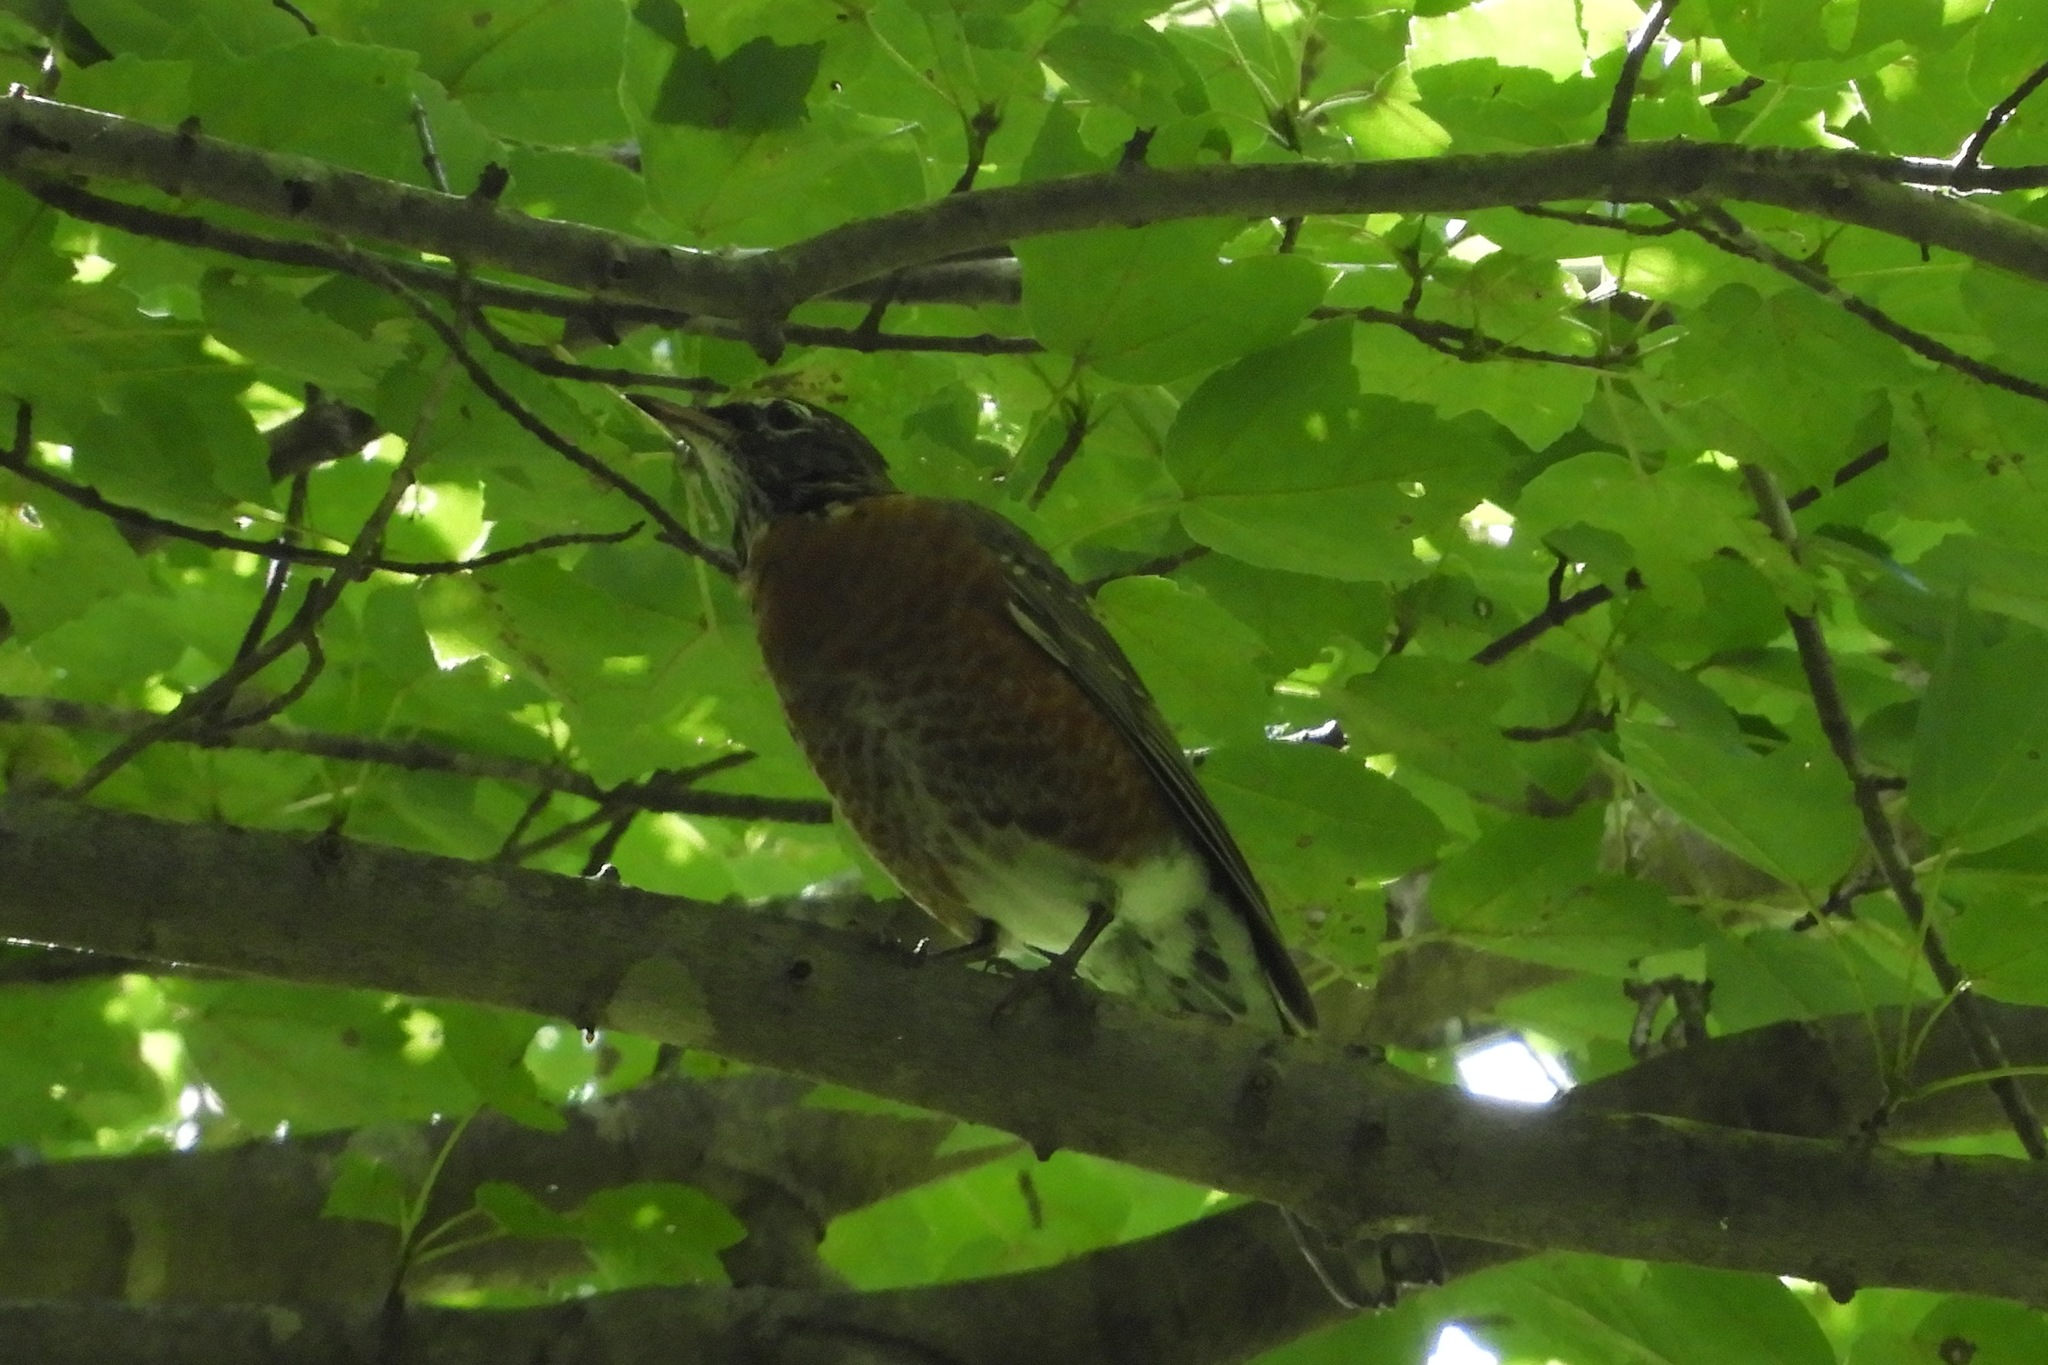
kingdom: Animalia
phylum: Chordata
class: Aves
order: Passeriformes
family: Turdidae
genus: Turdus
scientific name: Turdus migratorius
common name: American robin
